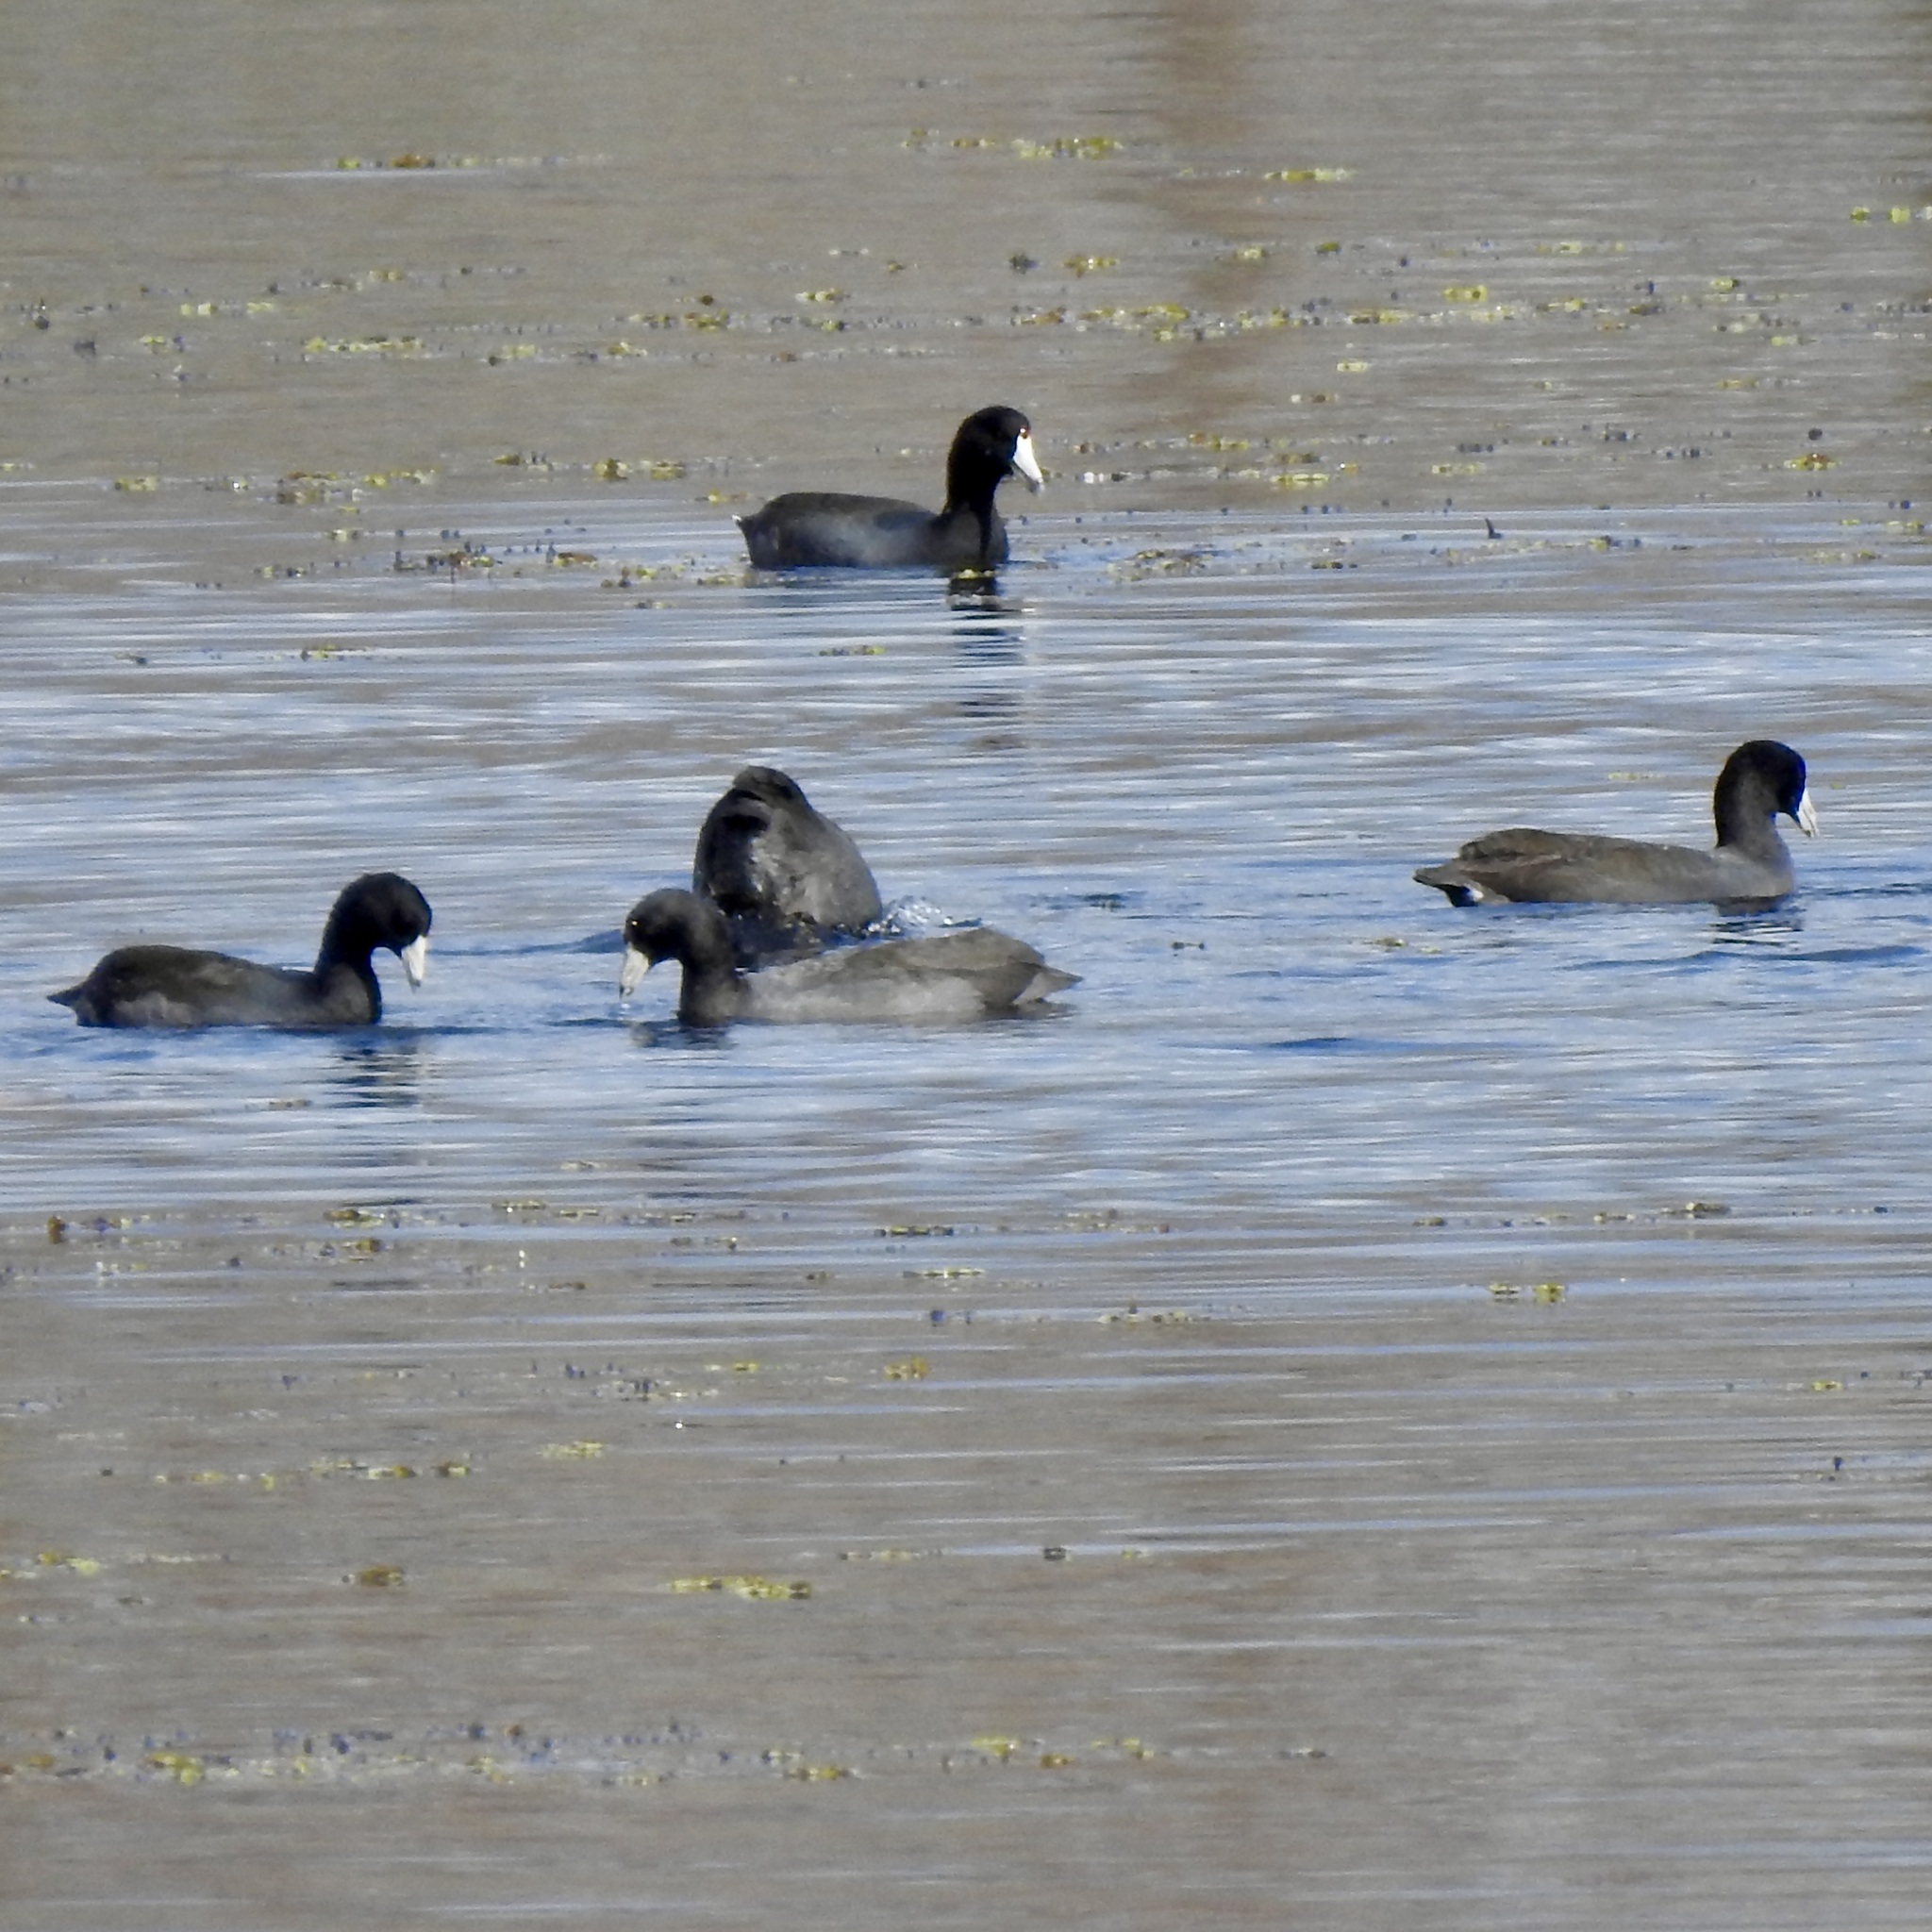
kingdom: Animalia
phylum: Chordata
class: Aves
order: Gruiformes
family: Rallidae
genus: Fulica
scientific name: Fulica americana
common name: American coot
